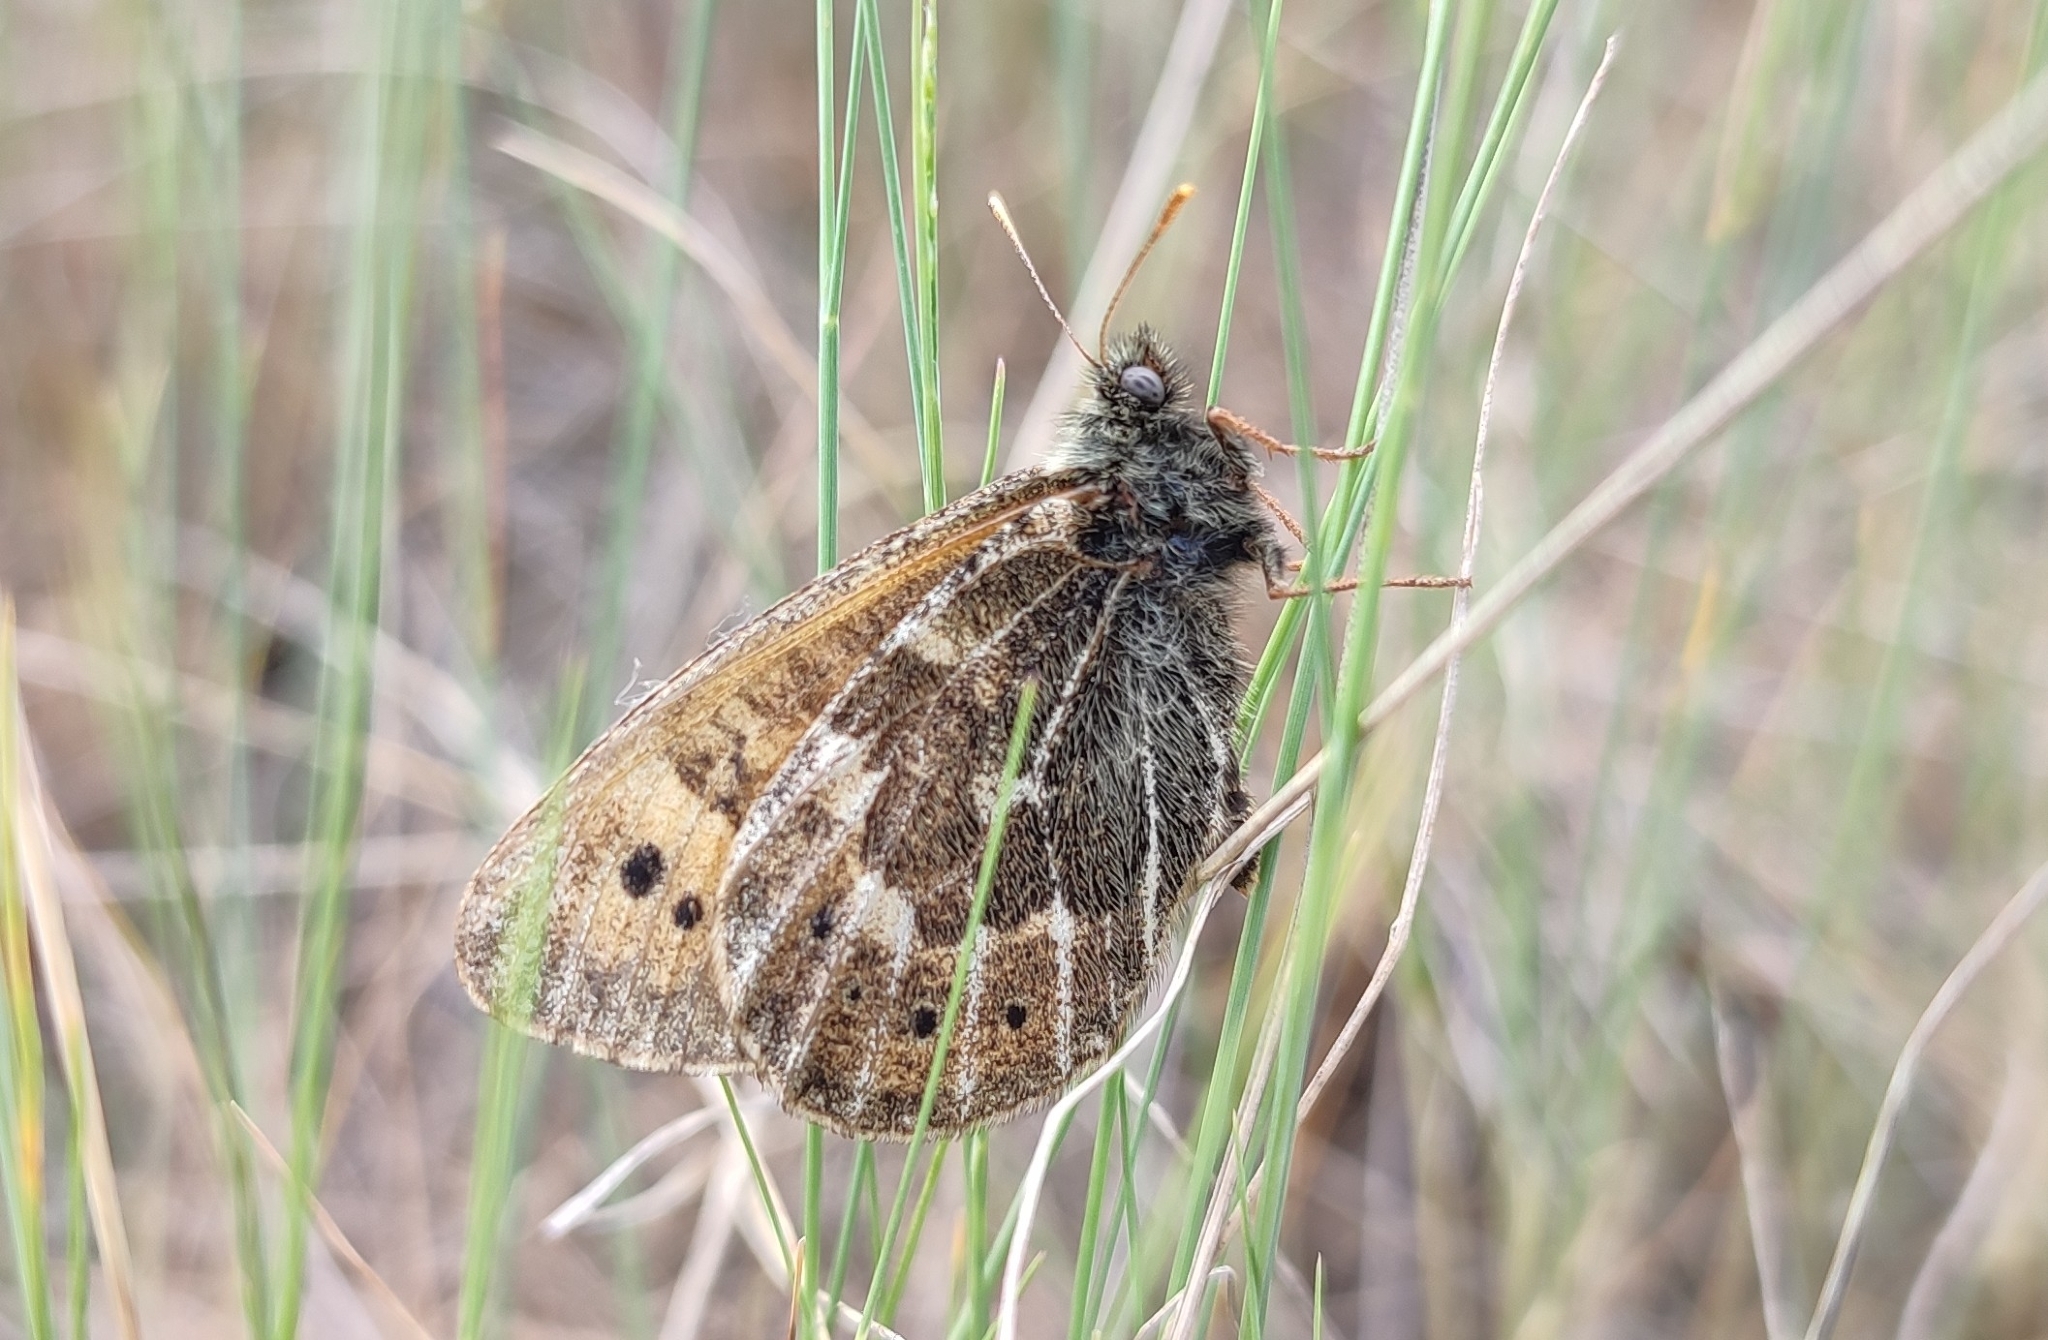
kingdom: Animalia
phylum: Arthropoda
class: Insecta
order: Lepidoptera
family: Nymphalidae
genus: Oeneis
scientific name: Oeneis tarpeia
